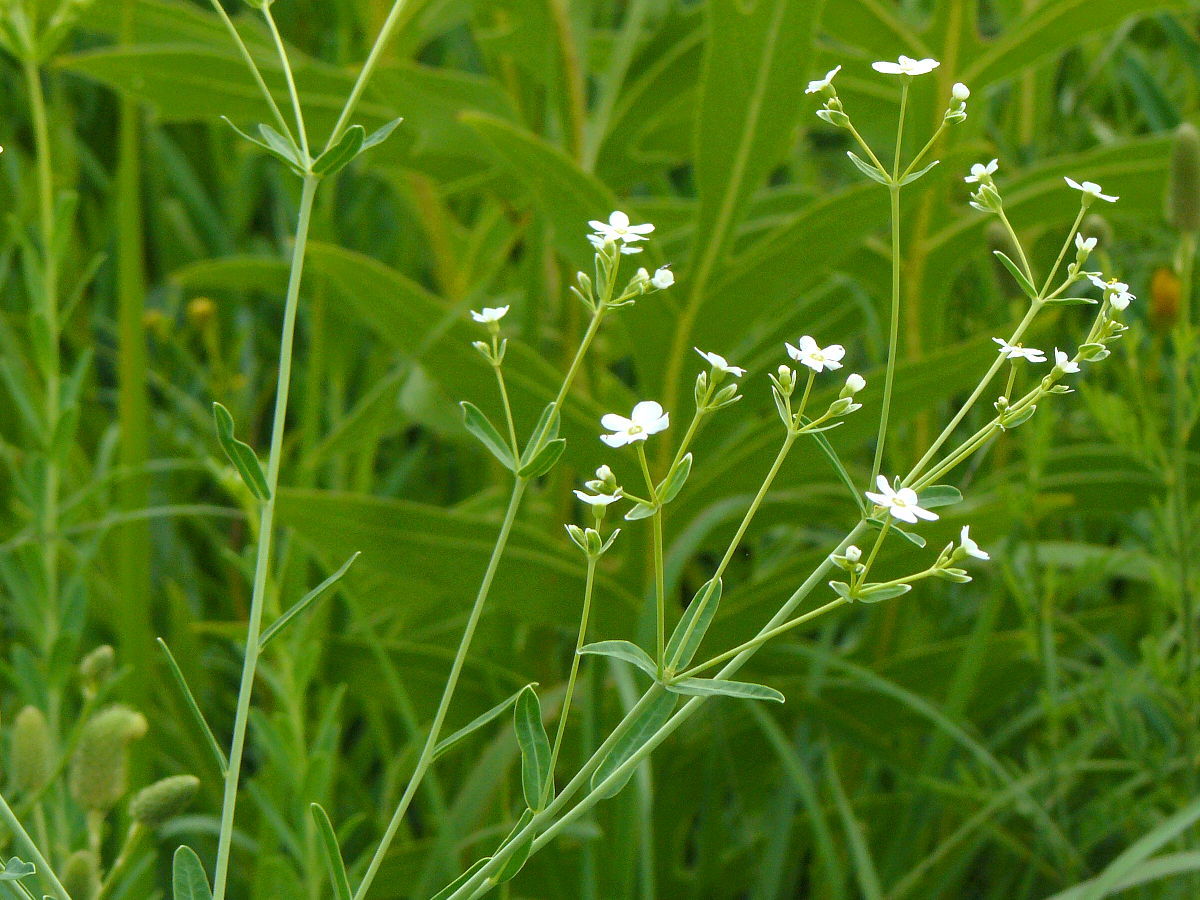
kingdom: Plantae
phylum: Tracheophyta
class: Magnoliopsida
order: Malpighiales
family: Euphorbiaceae
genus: Euphorbia
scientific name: Euphorbia corollata
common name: Flowering spurge
